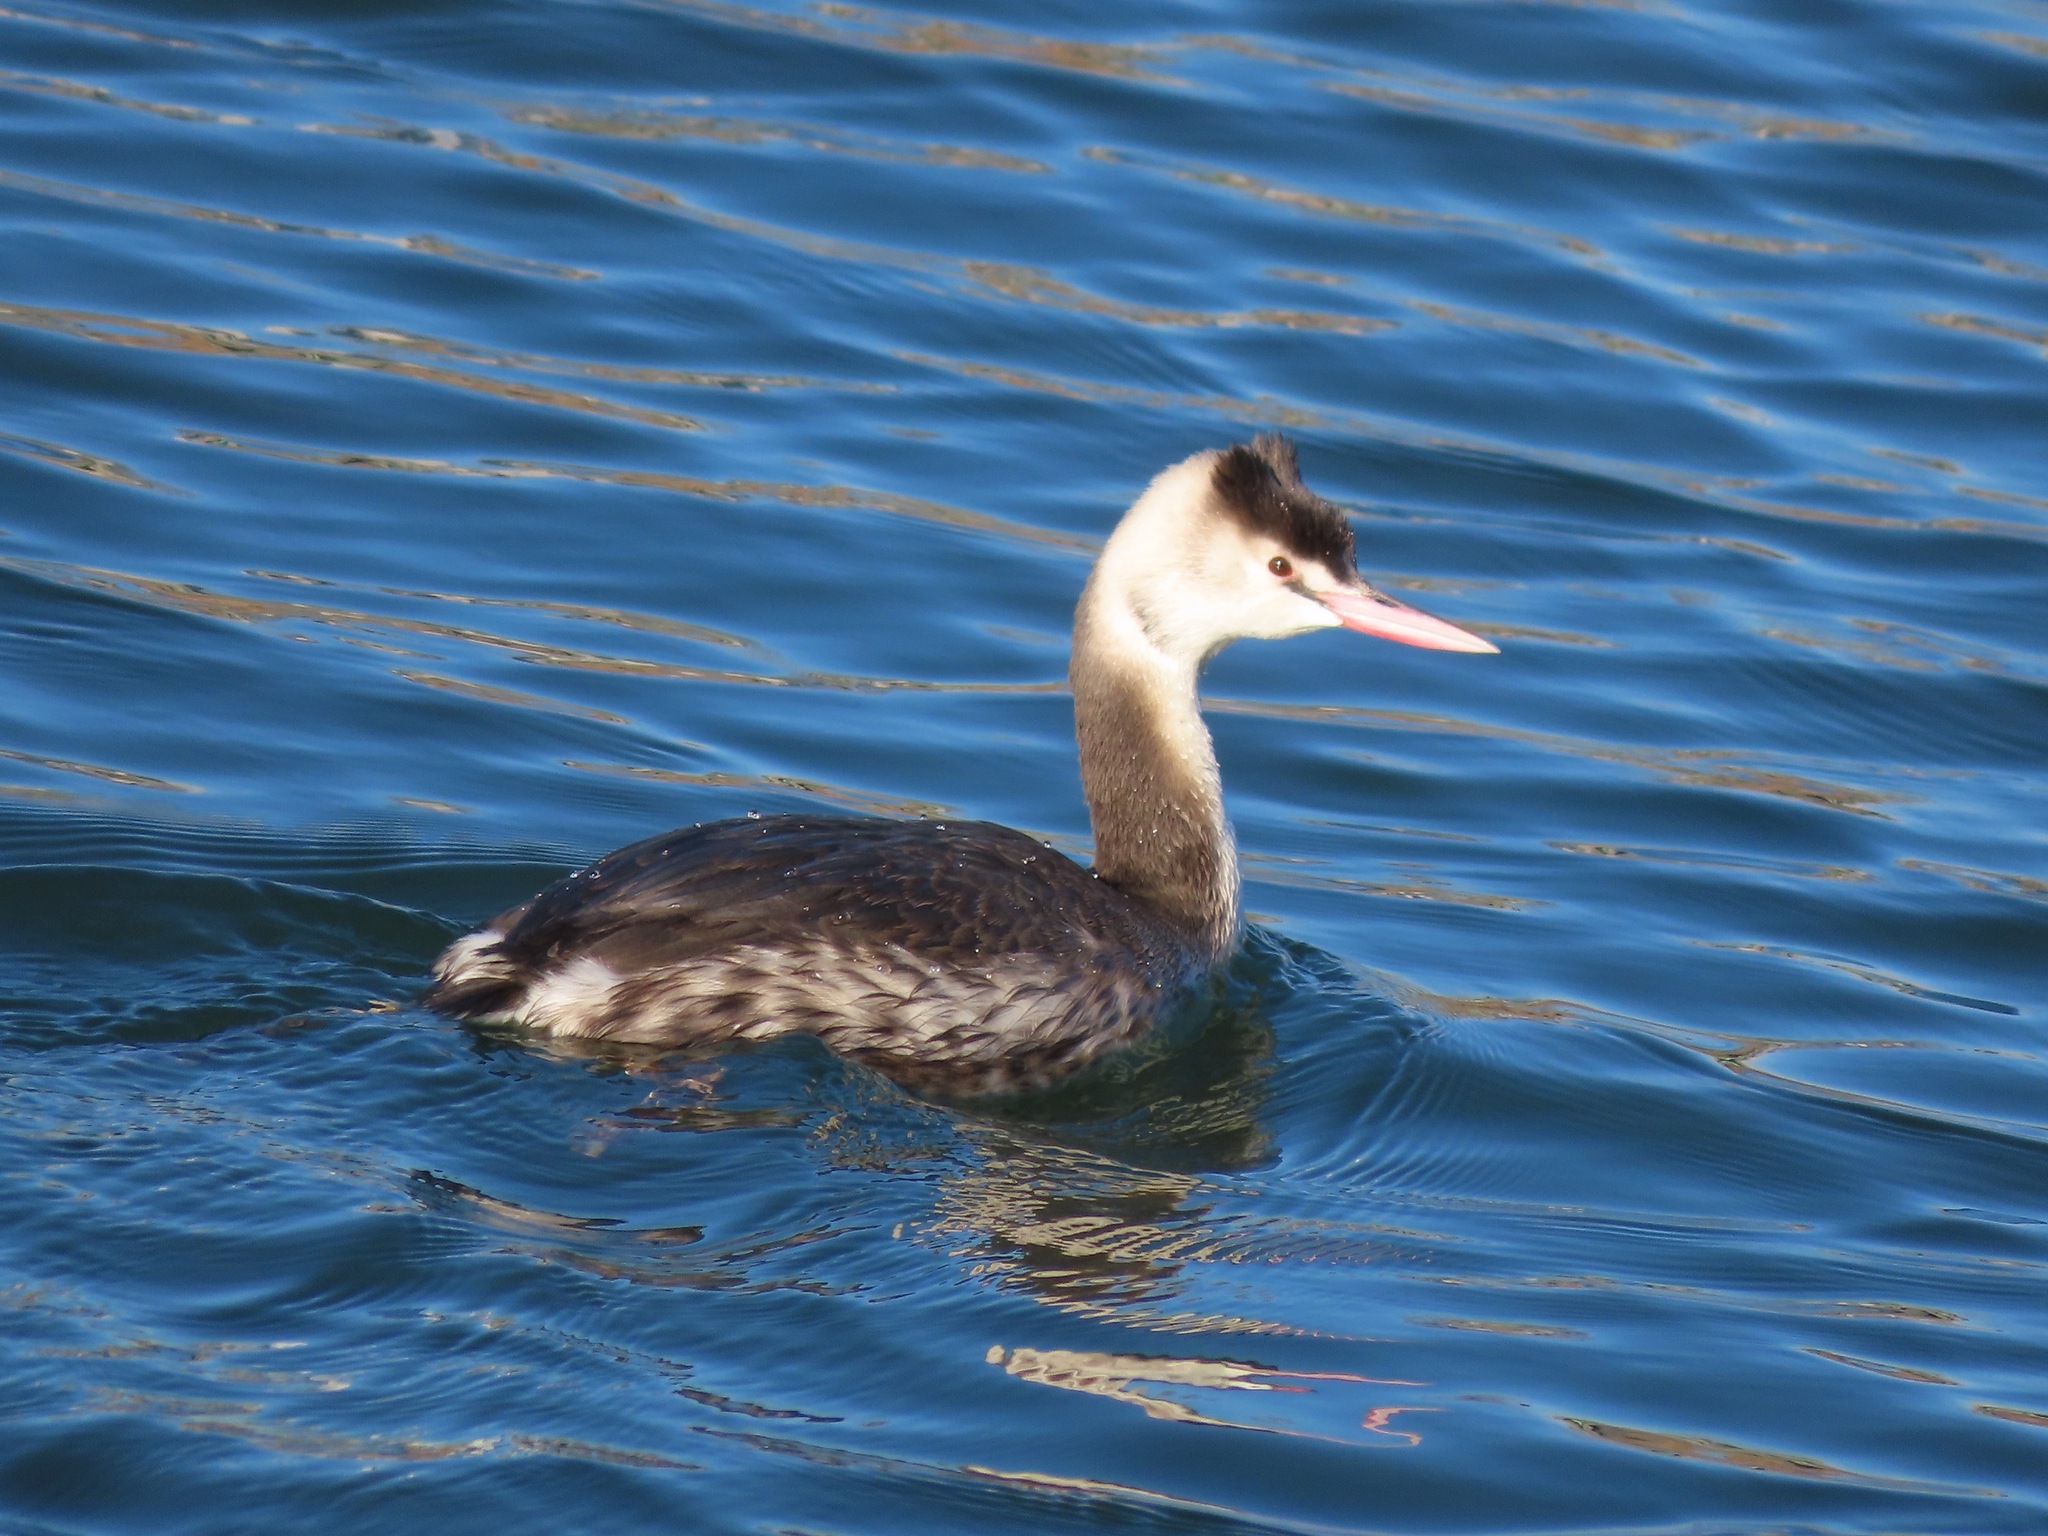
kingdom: Animalia
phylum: Chordata
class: Aves
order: Podicipediformes
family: Podicipedidae
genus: Podiceps
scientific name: Podiceps cristatus
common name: Great crested grebe
